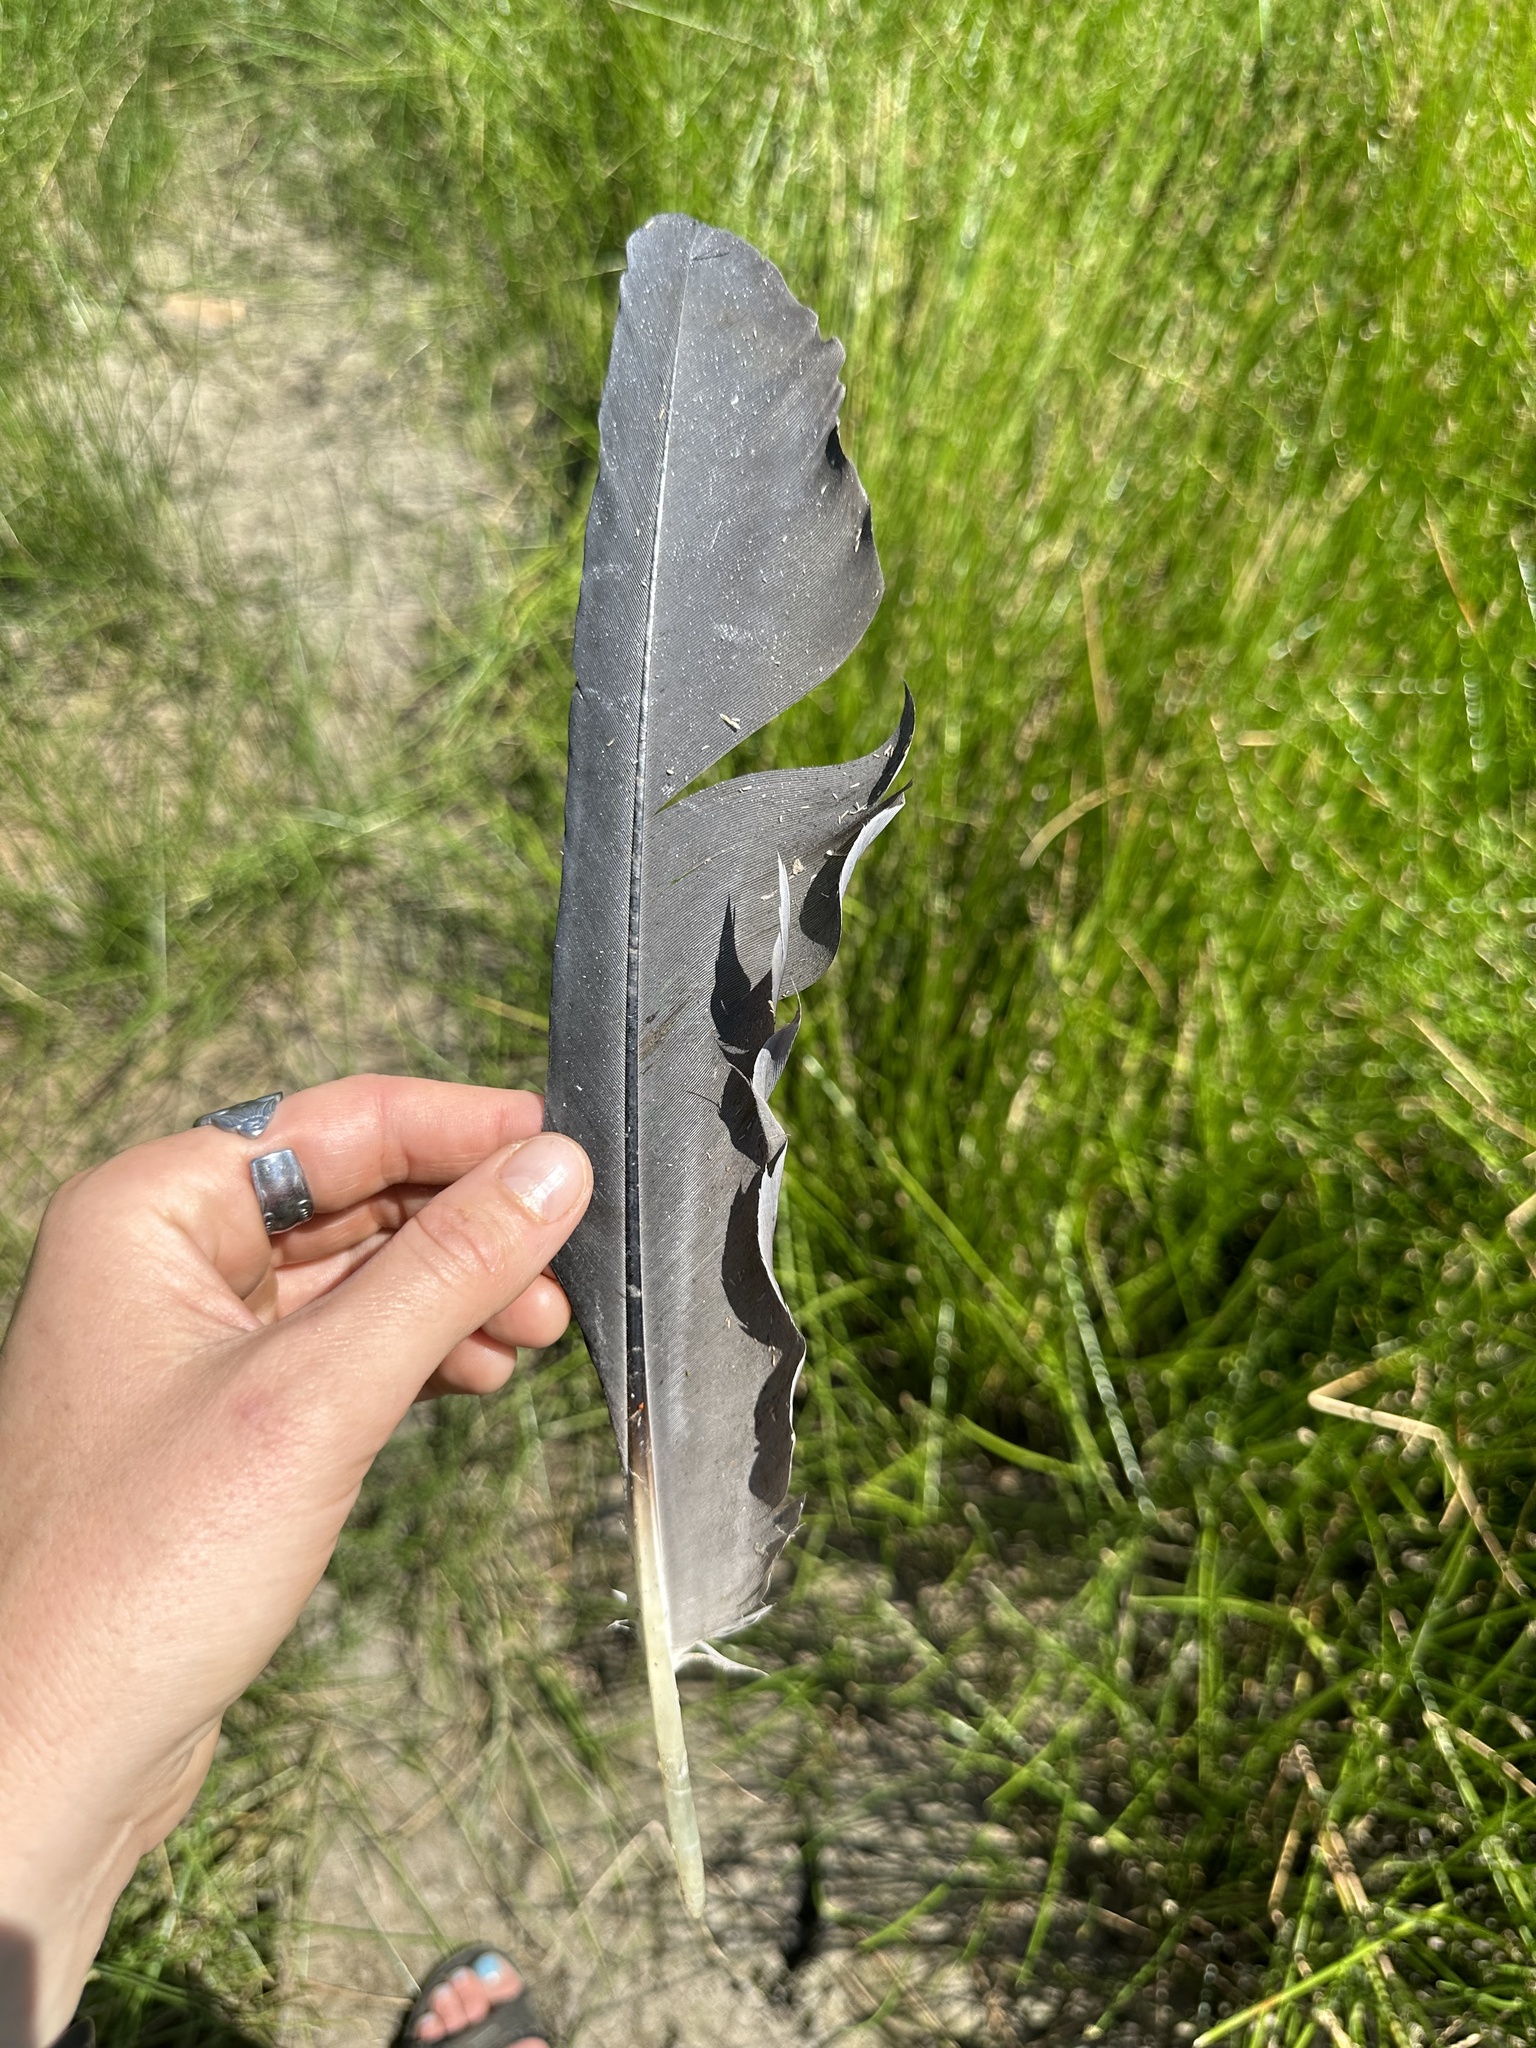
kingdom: Animalia
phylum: Chordata
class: Aves
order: Pelecaniformes
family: Ardeidae
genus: Ardea
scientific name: Ardea herodias
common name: Great blue heron
